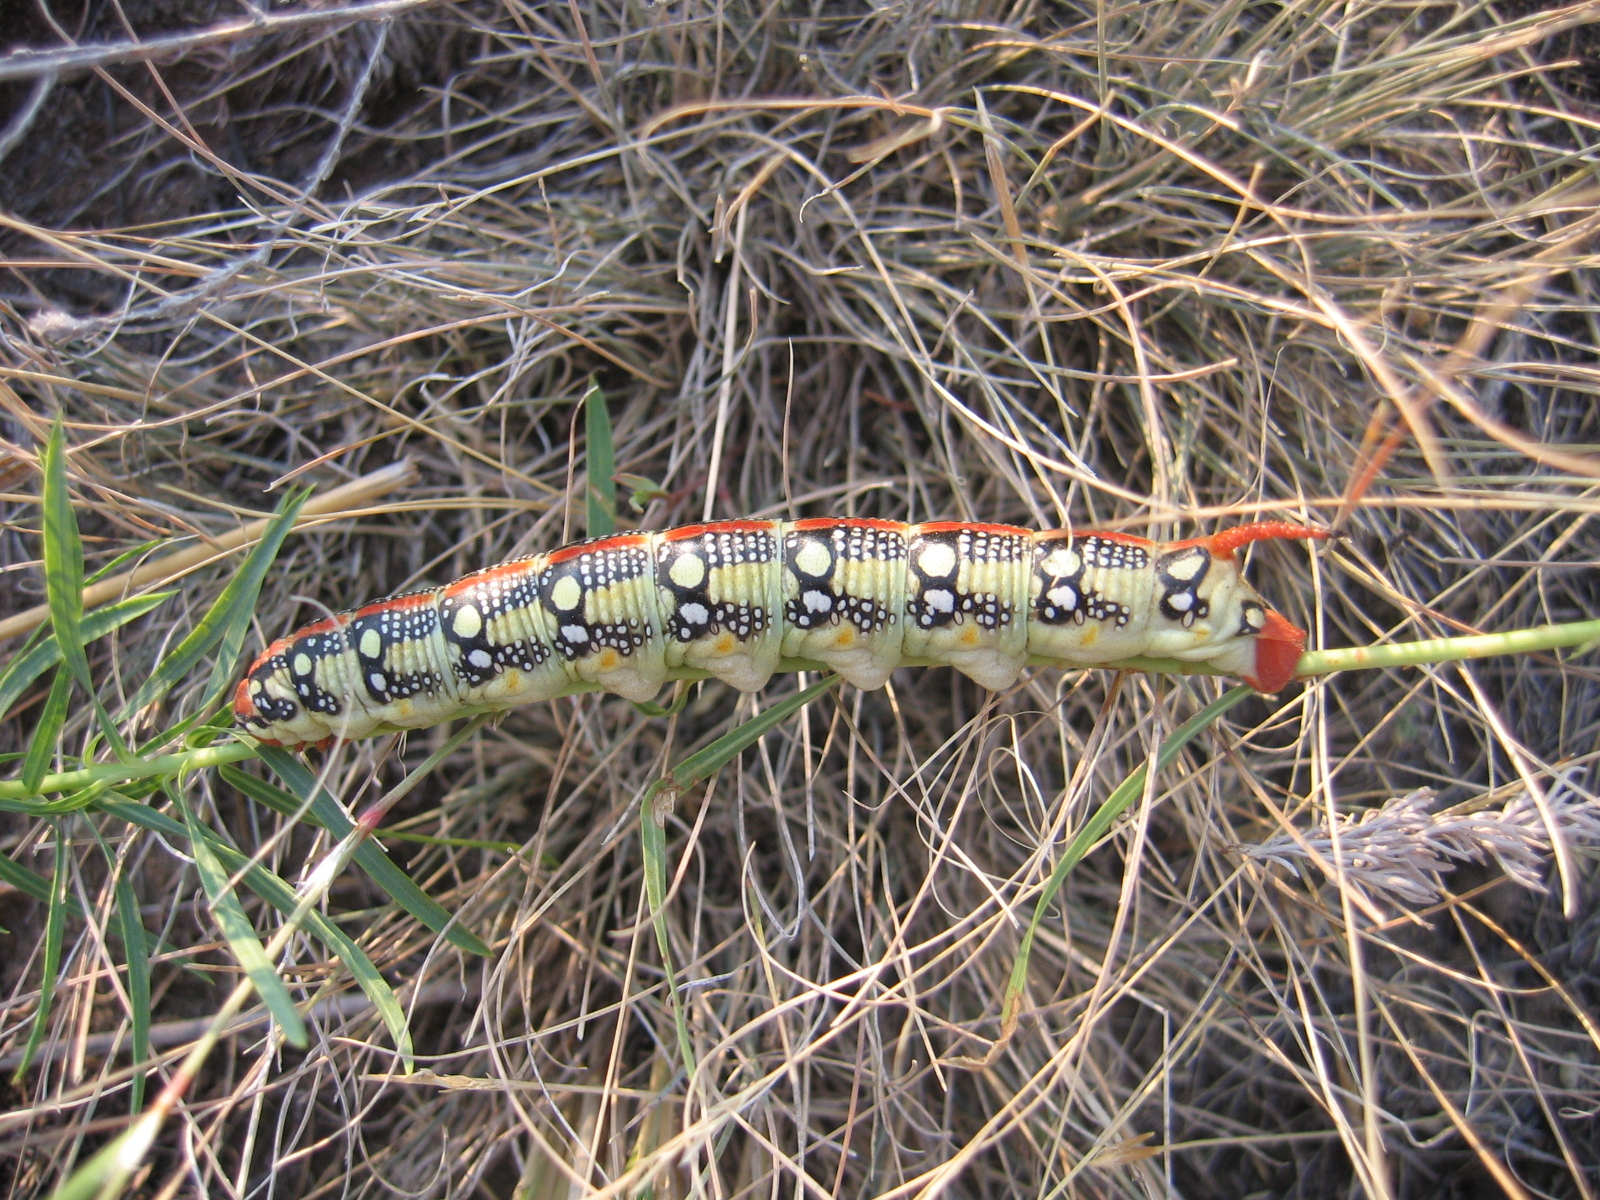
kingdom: Animalia
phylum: Arthropoda
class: Insecta
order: Lepidoptera
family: Sphingidae
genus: Hyles
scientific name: Hyles euphorbiae
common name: Spurge hawk-moth
